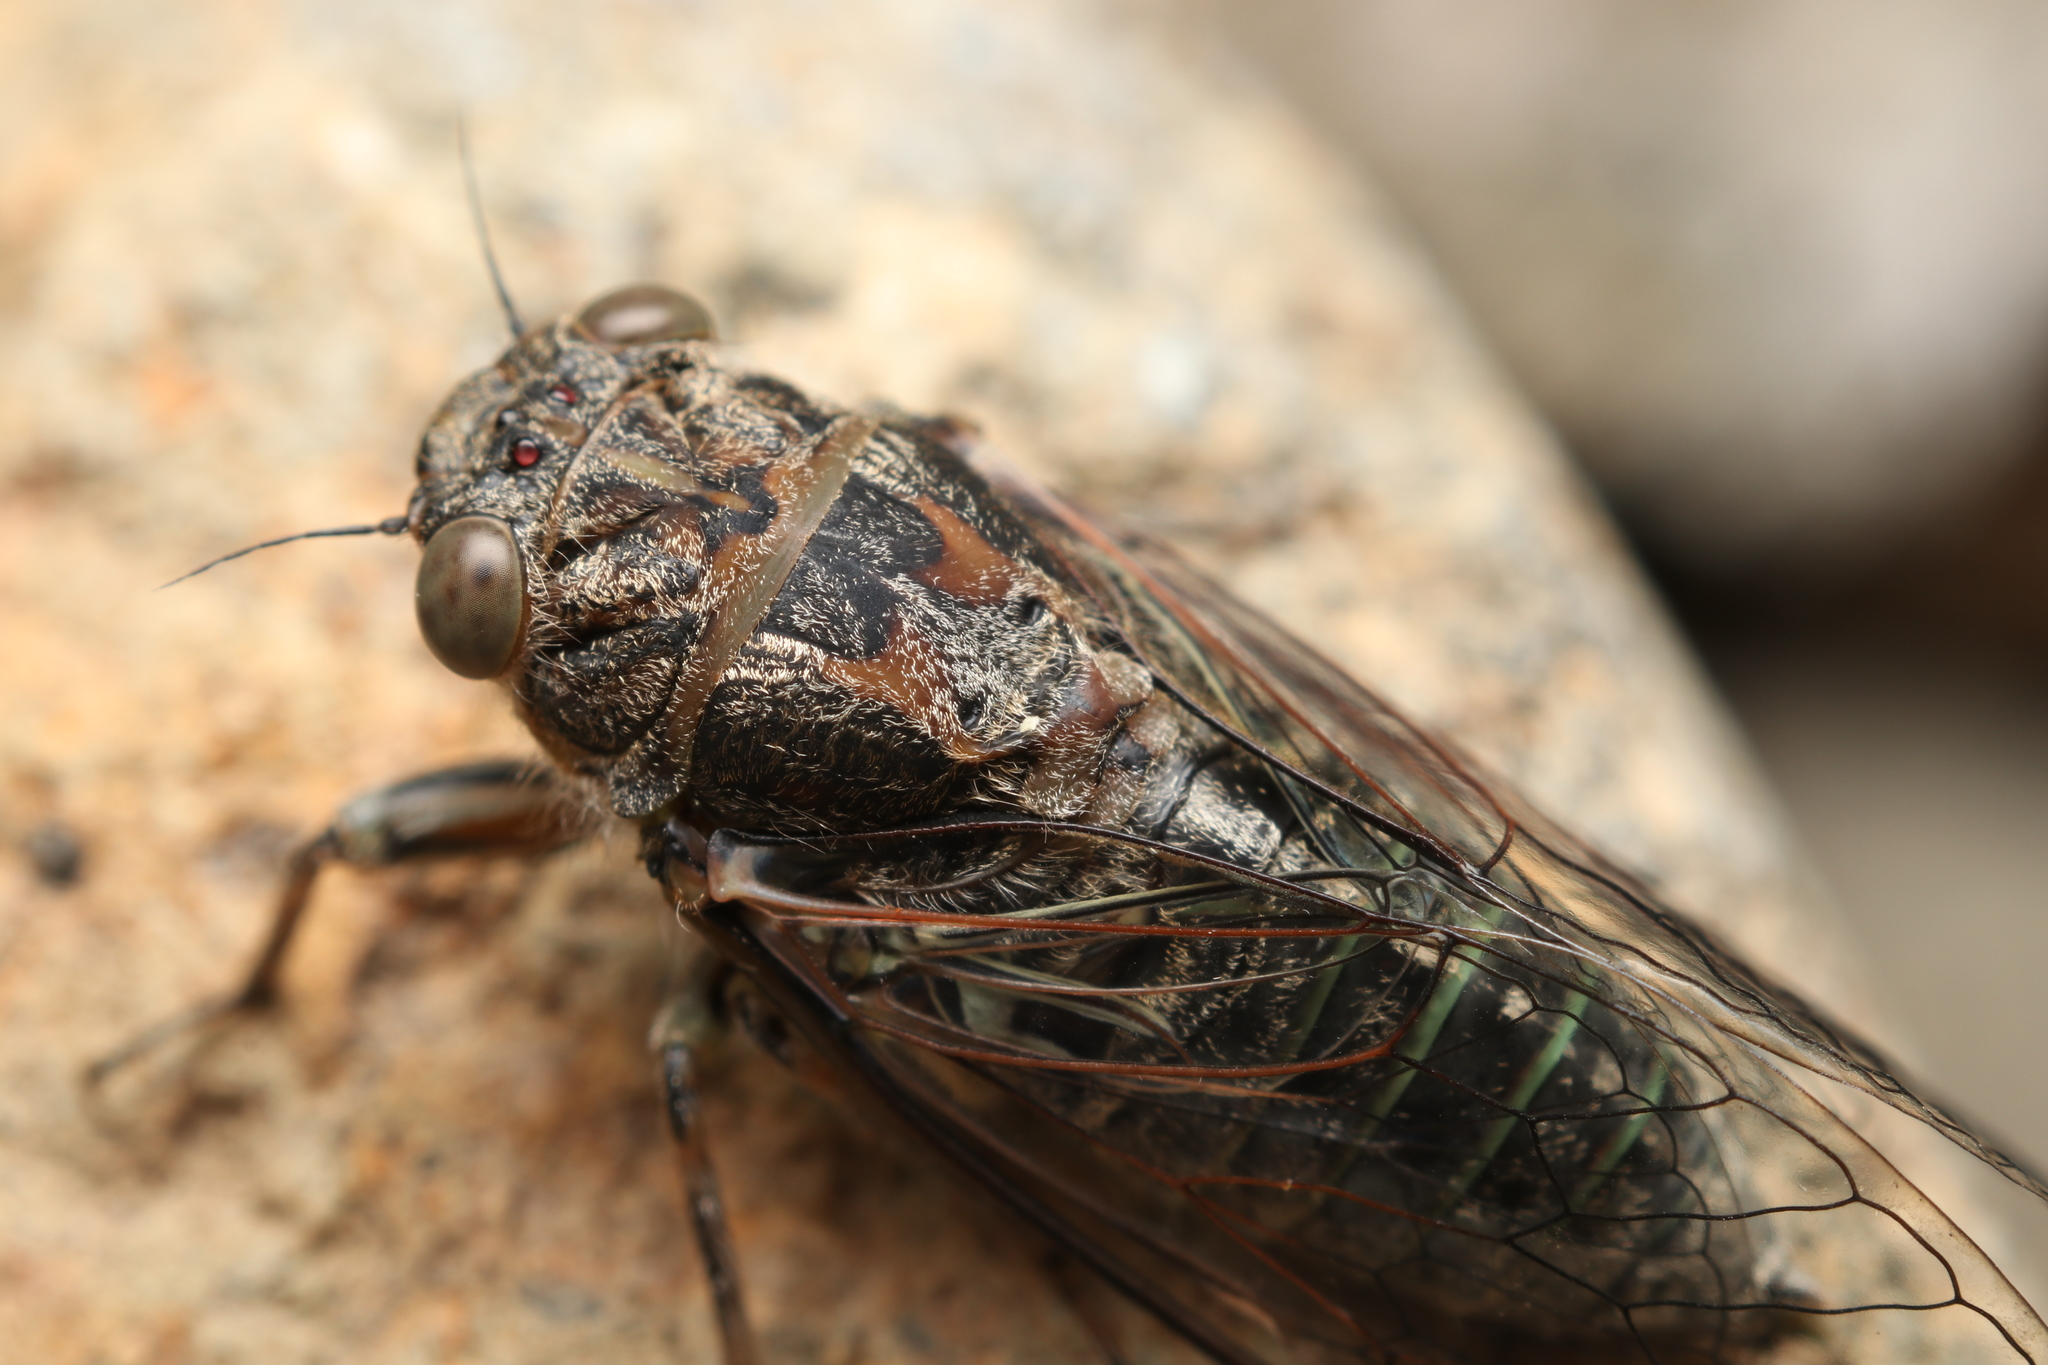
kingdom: Animalia
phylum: Arthropoda
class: Insecta
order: Hemiptera
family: Cicadidae
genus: Notopsalta
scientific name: Notopsalta sericea
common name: Clay bank cicada
